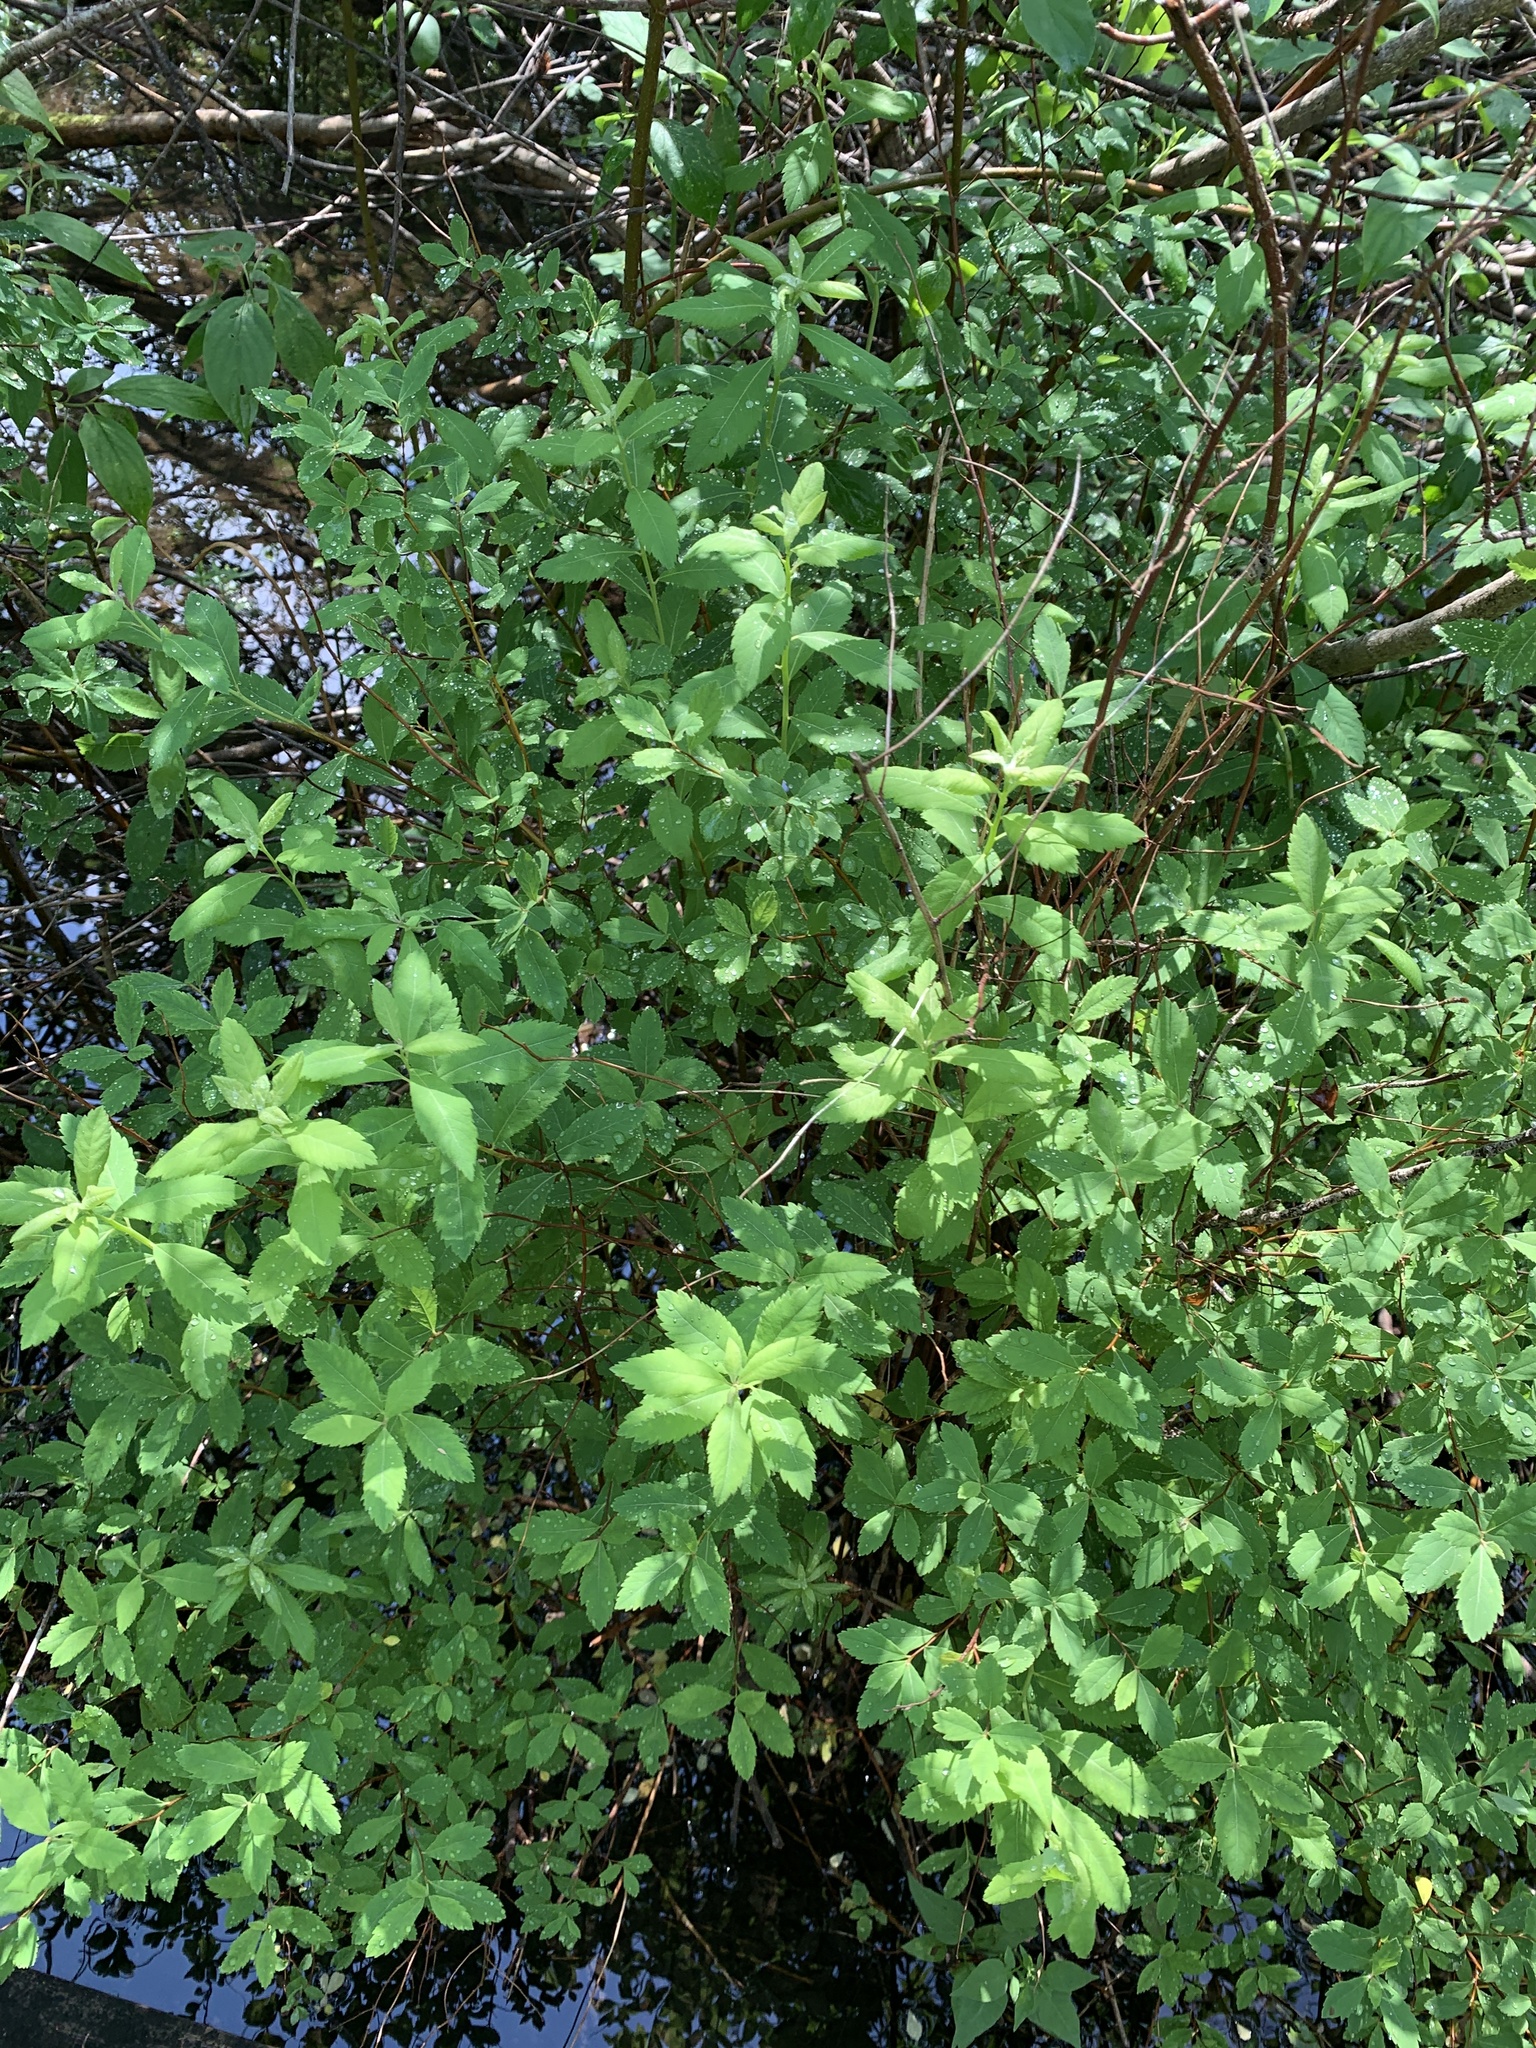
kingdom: Plantae
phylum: Tracheophyta
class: Magnoliopsida
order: Rosales
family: Rosaceae
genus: Spiraea
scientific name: Spiraea alba
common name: Pale bridewort
